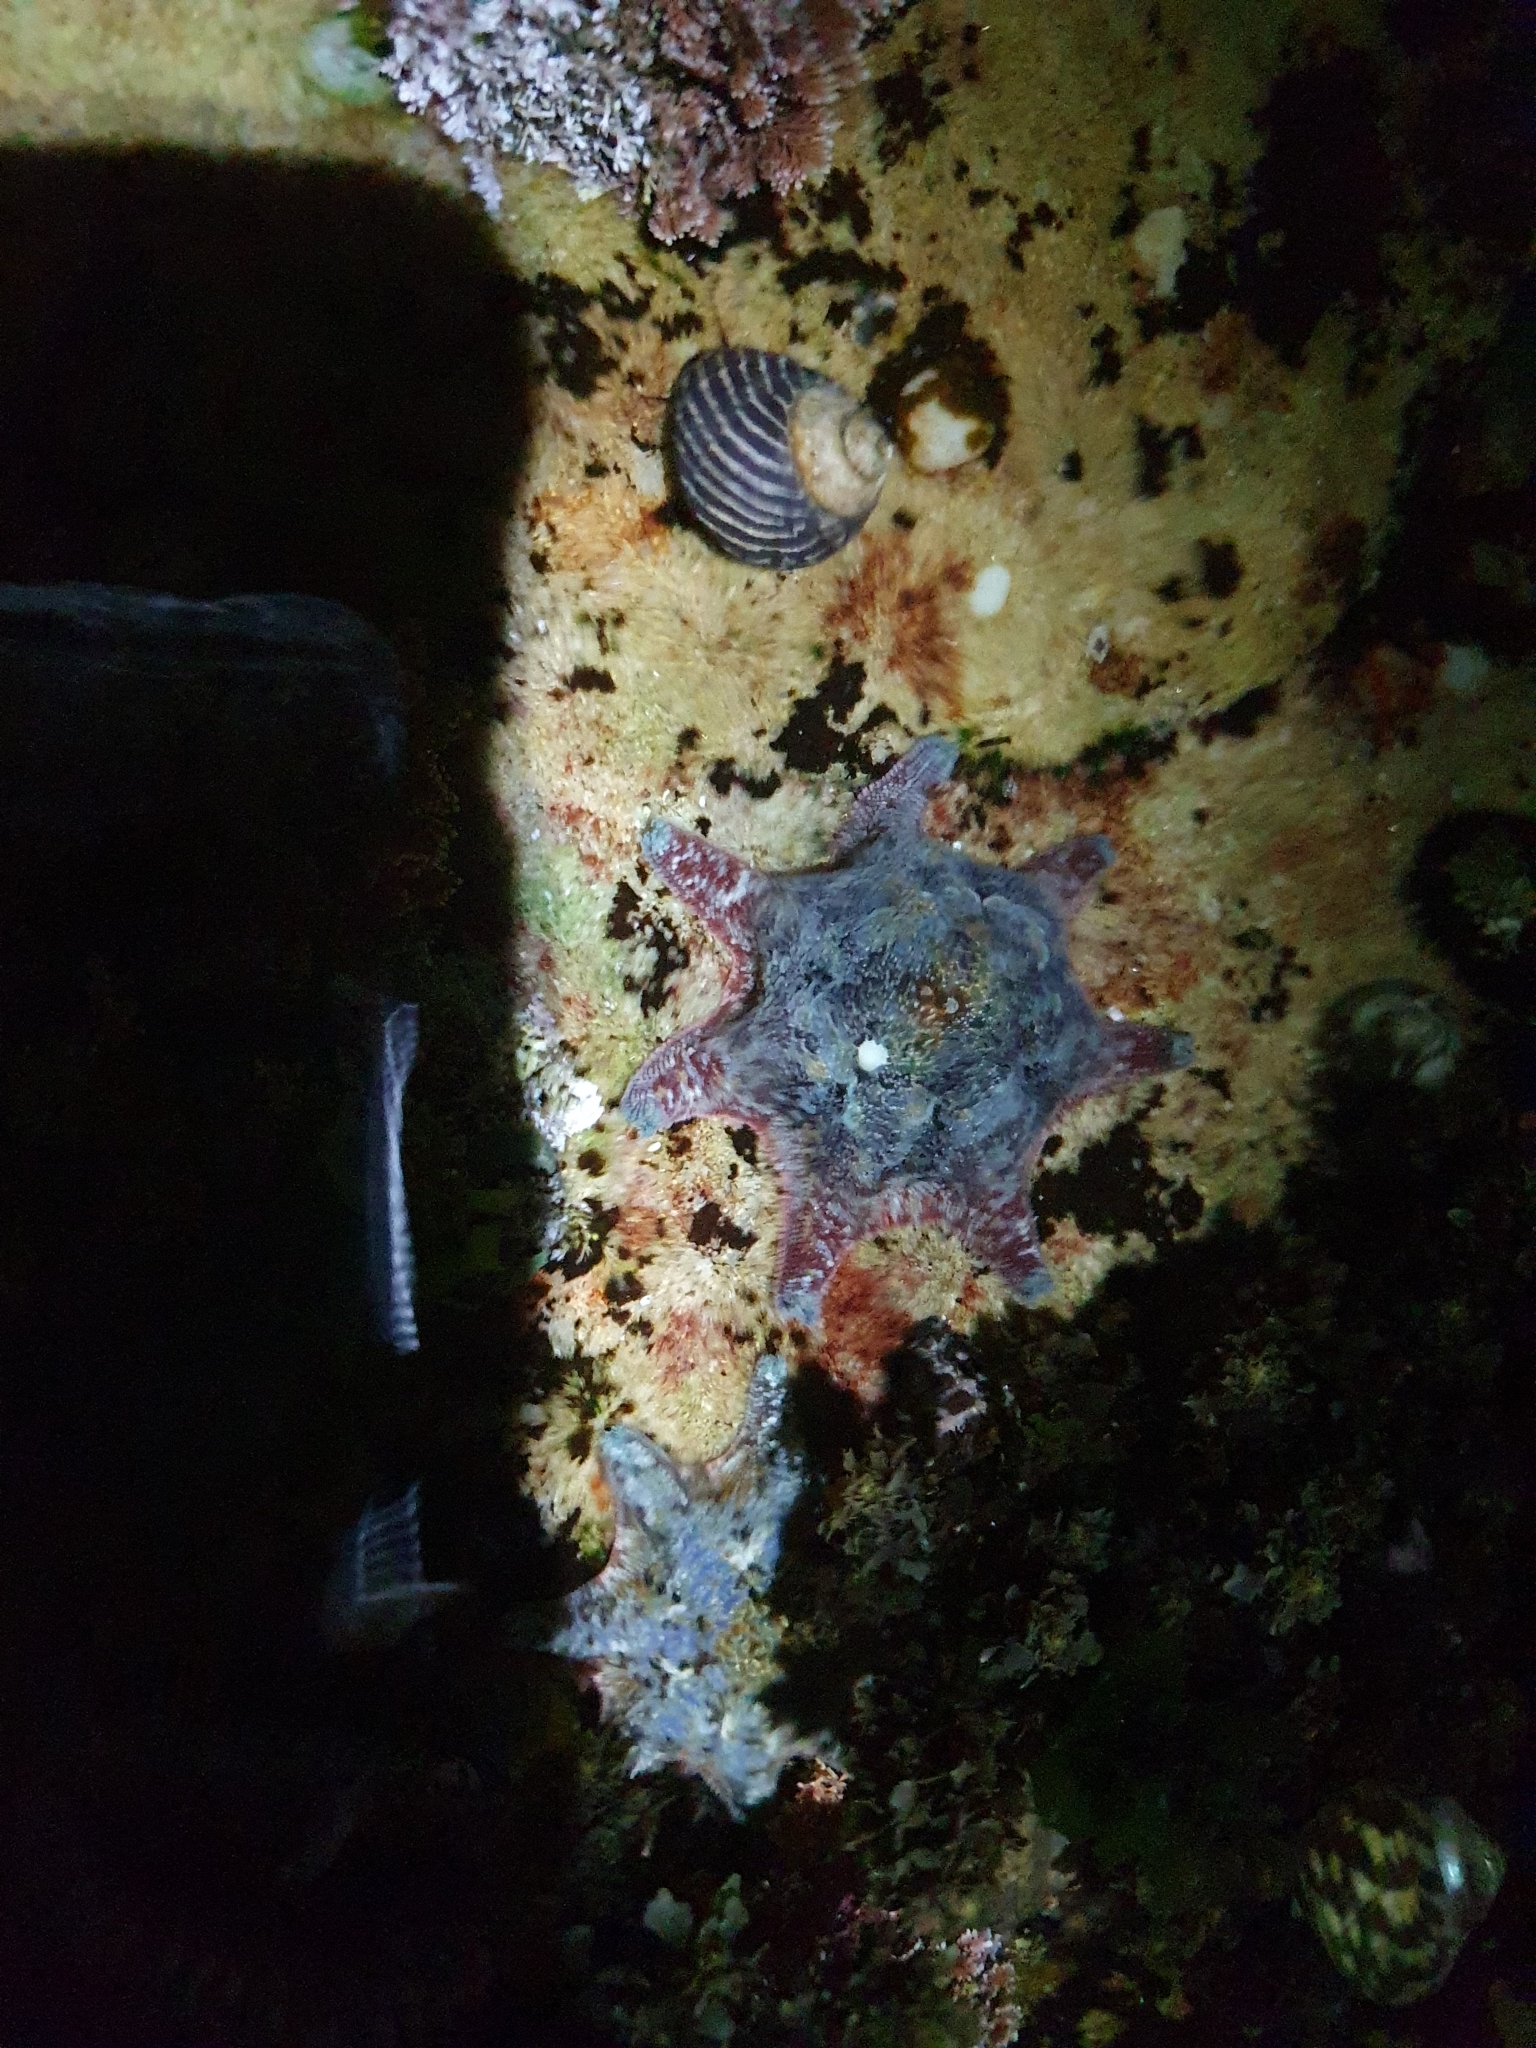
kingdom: Animalia
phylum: Echinodermata
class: Asteroidea
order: Valvatida
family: Asterinidae
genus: Meridiastra
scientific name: Meridiastra calcar
